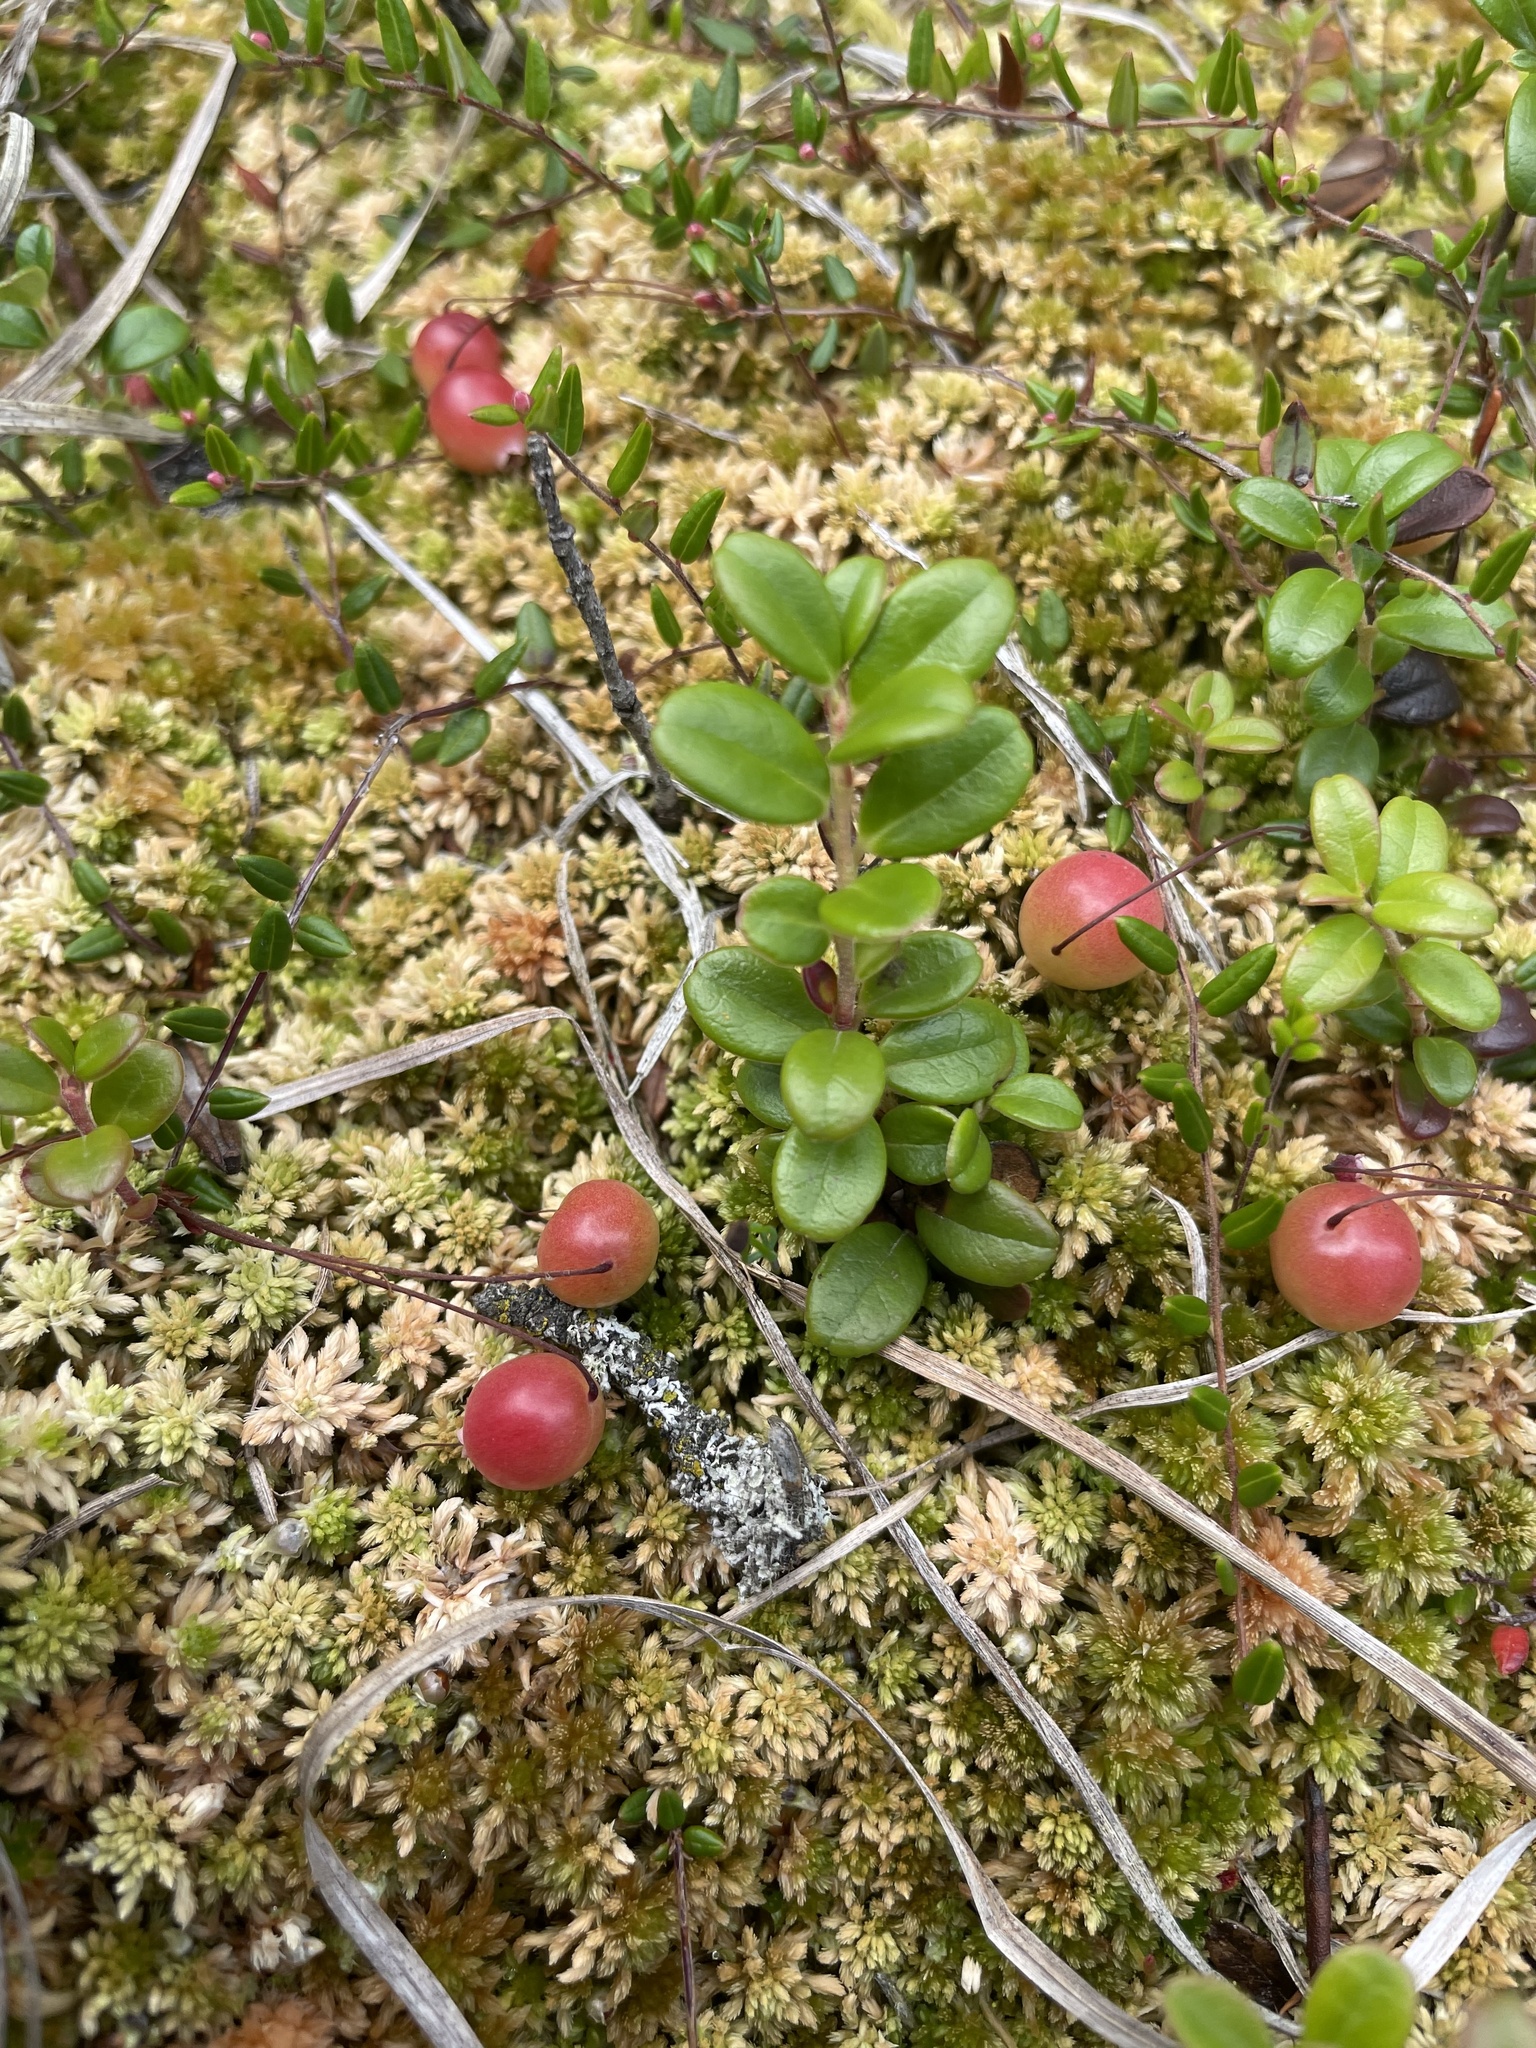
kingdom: Plantae
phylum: Tracheophyta
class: Magnoliopsida
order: Ericales
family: Ericaceae
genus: Vaccinium
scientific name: Vaccinium oxycoccos
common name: Cranberry
